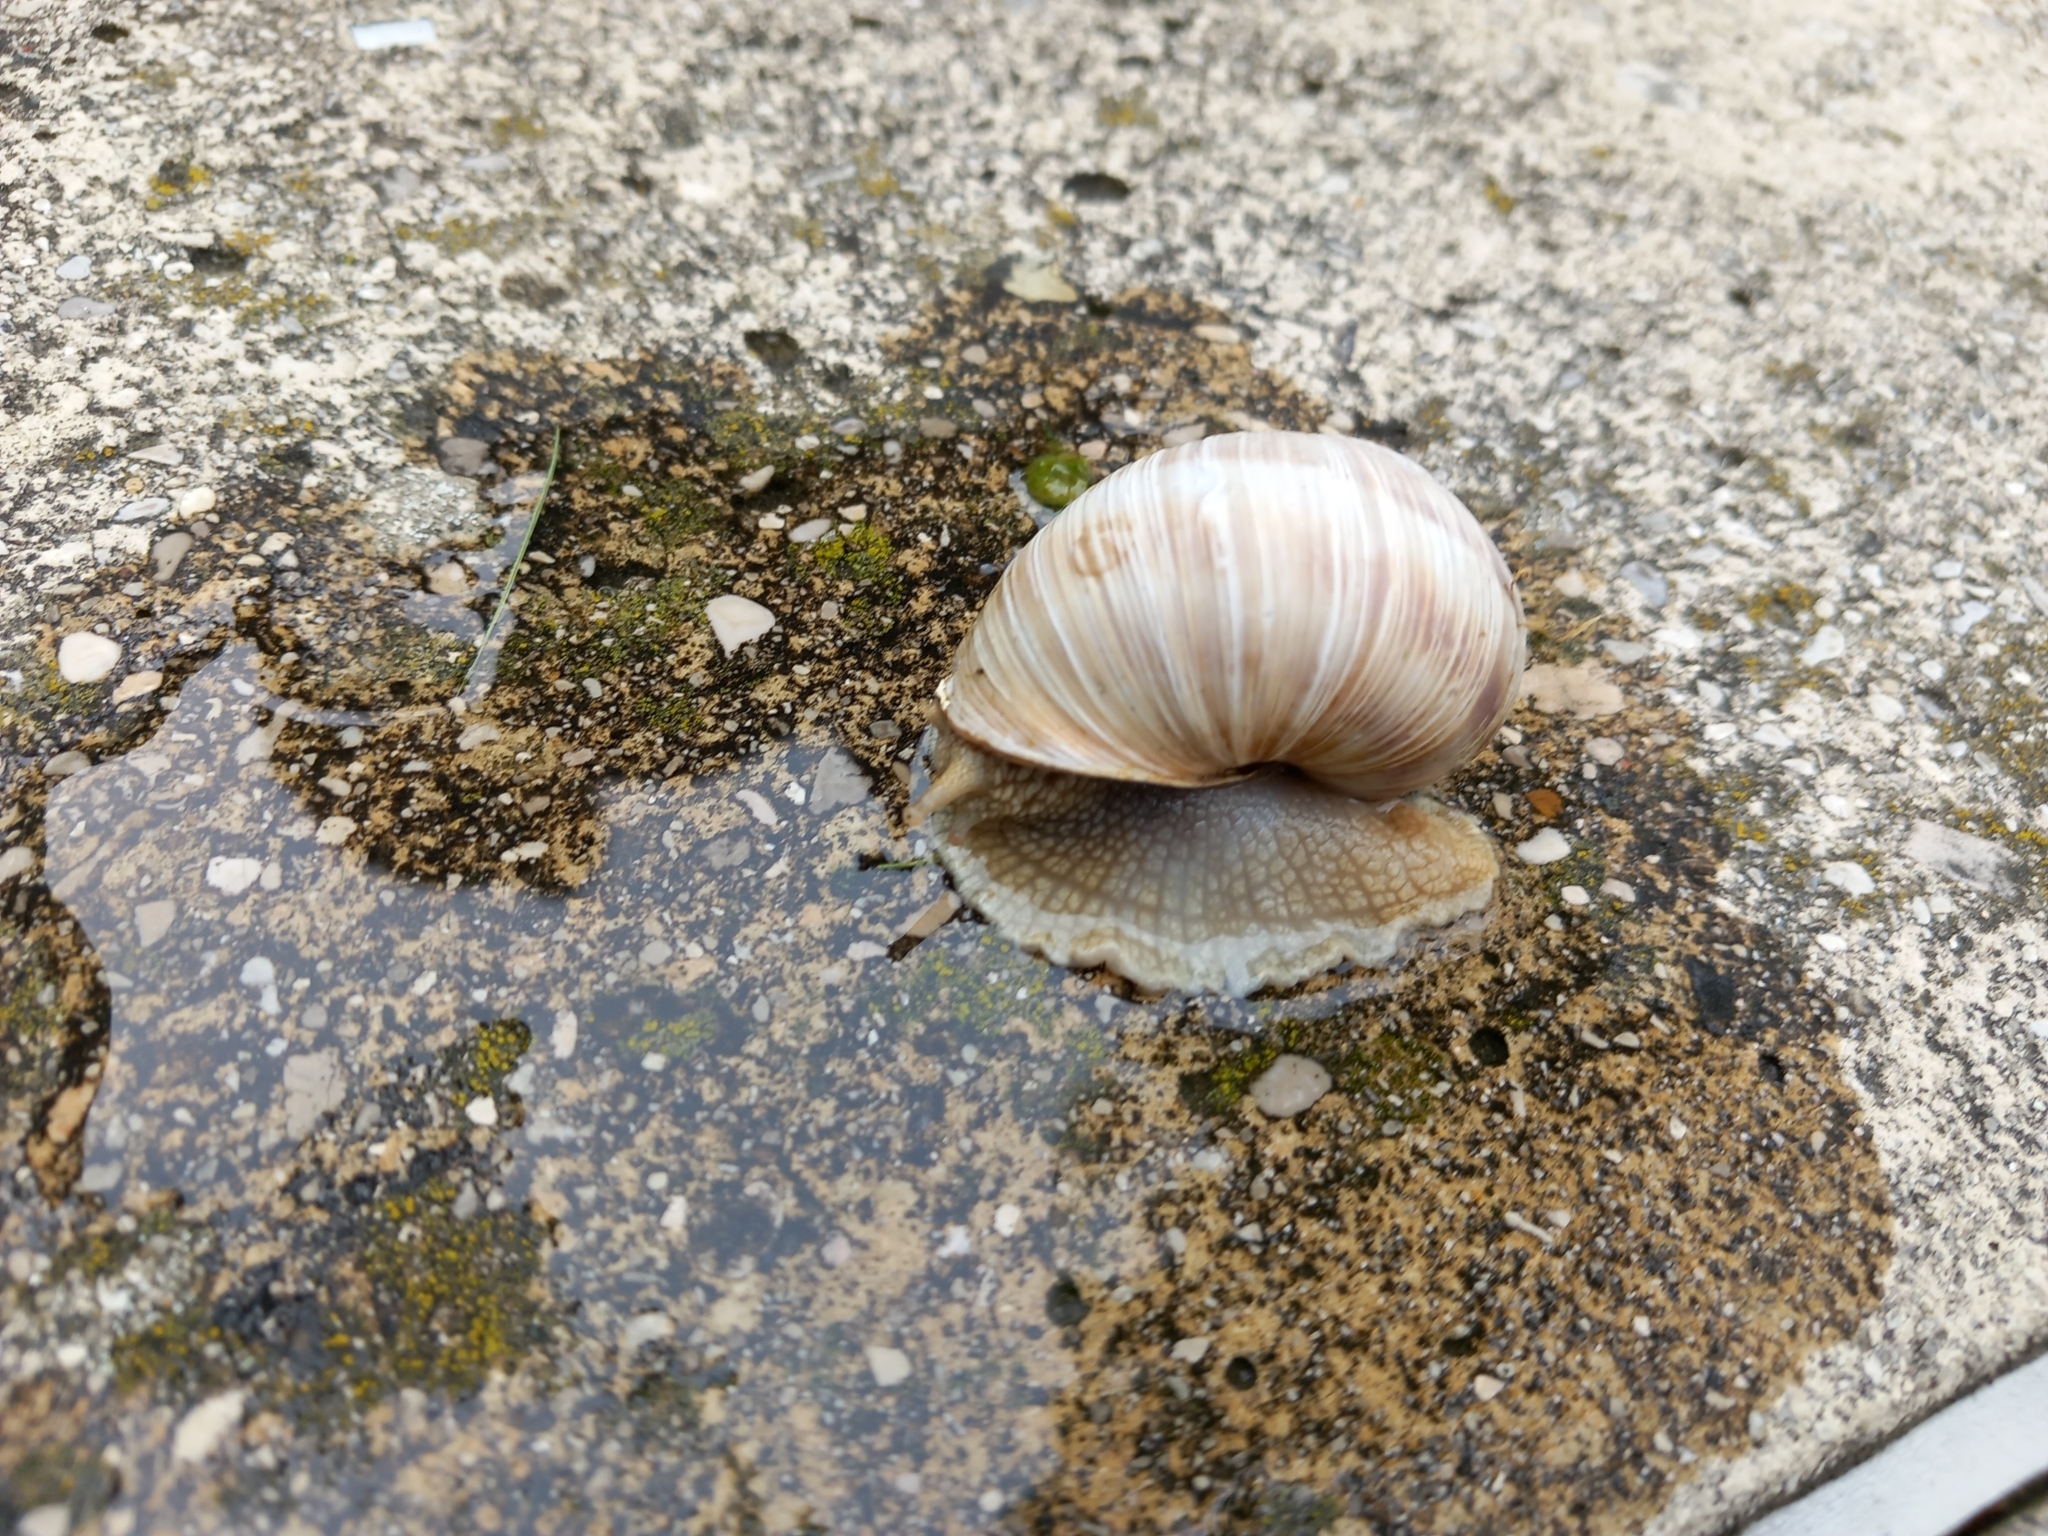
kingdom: Animalia
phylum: Mollusca
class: Gastropoda
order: Stylommatophora
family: Helicidae
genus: Helix
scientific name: Helix pomatia
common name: Roman snail
